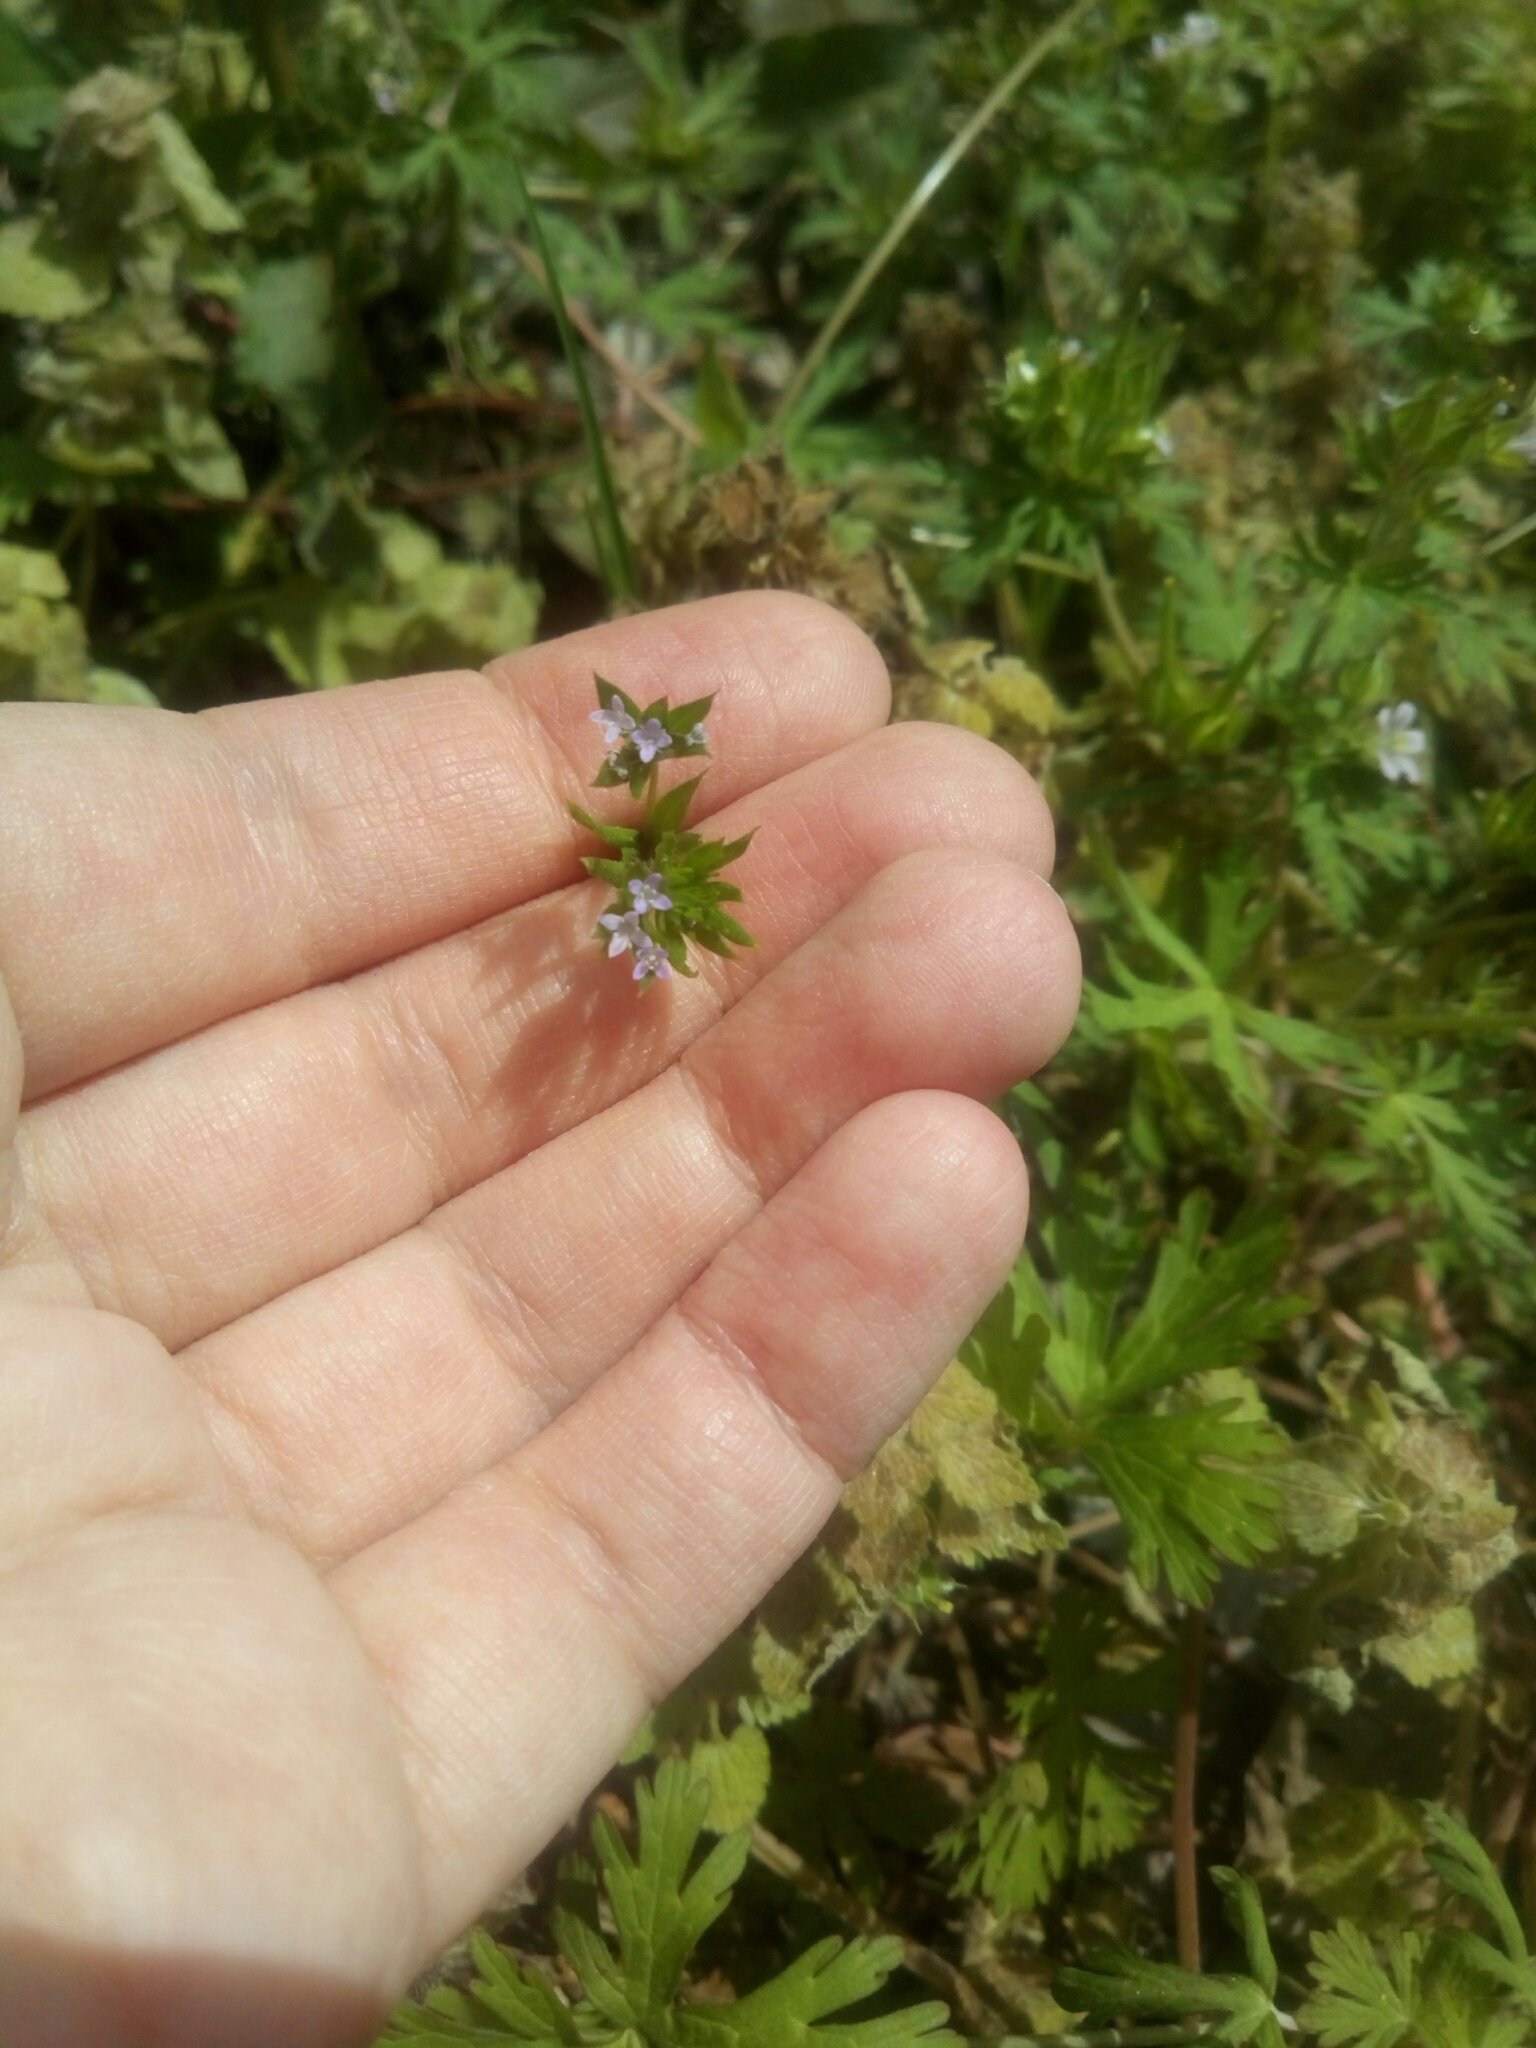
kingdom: Plantae
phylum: Tracheophyta
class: Magnoliopsida
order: Gentianales
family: Rubiaceae
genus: Sherardia
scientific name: Sherardia arvensis
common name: Field madder
